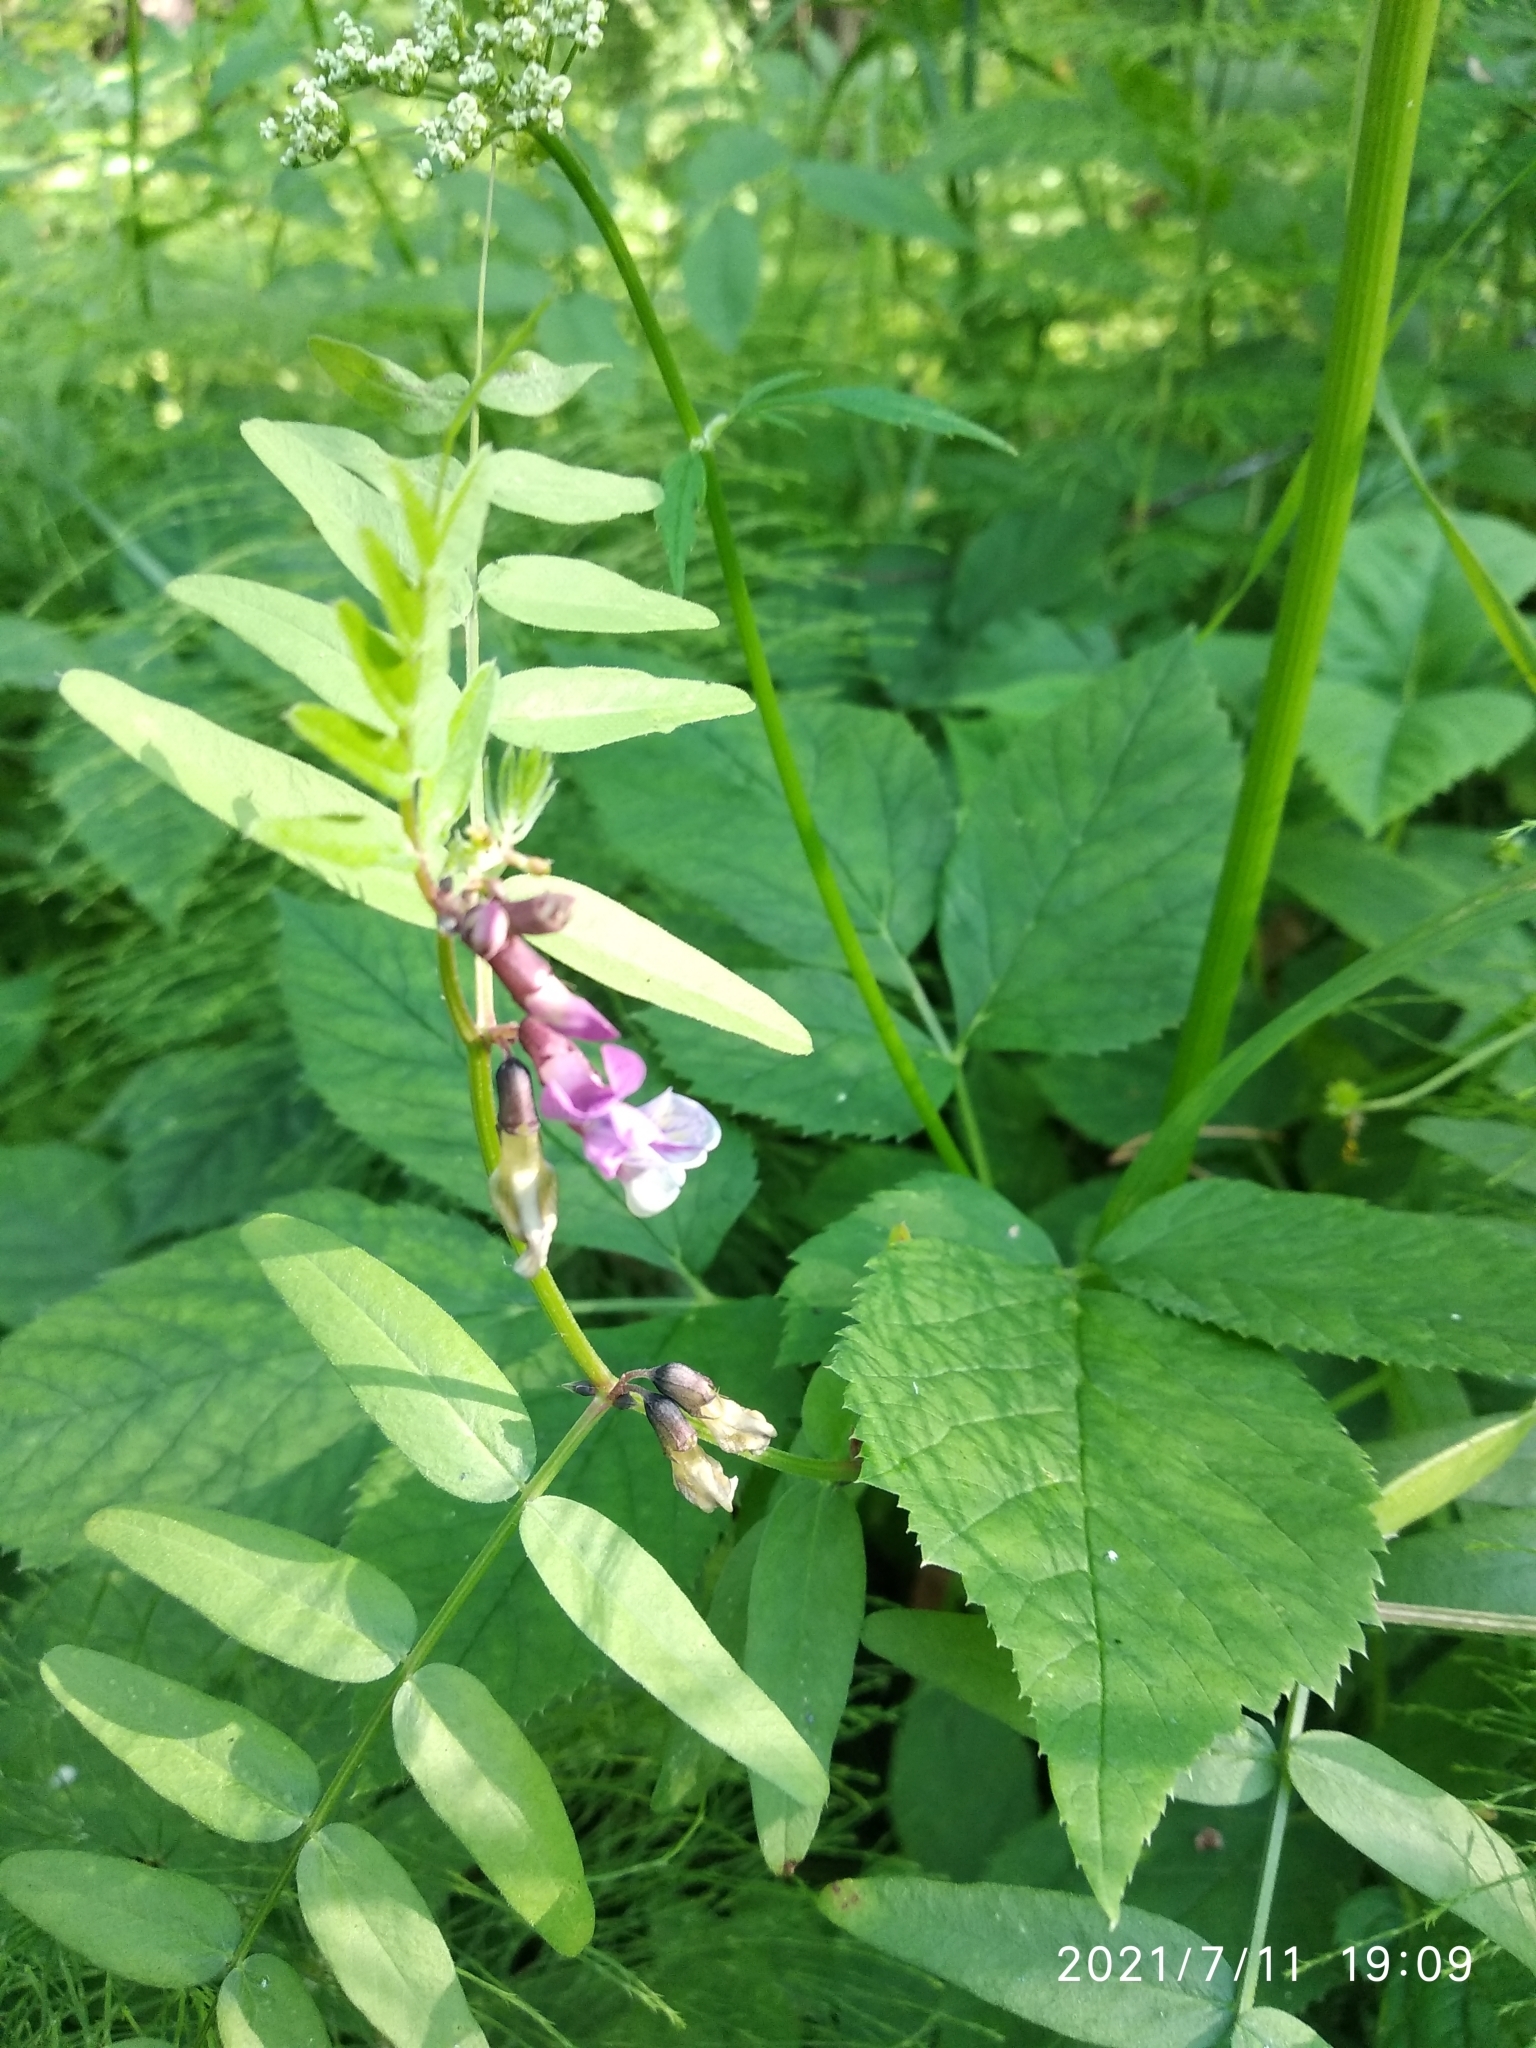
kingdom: Plantae
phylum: Tracheophyta
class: Magnoliopsida
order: Fabales
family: Fabaceae
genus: Vicia
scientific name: Vicia sepium
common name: Bush vetch
